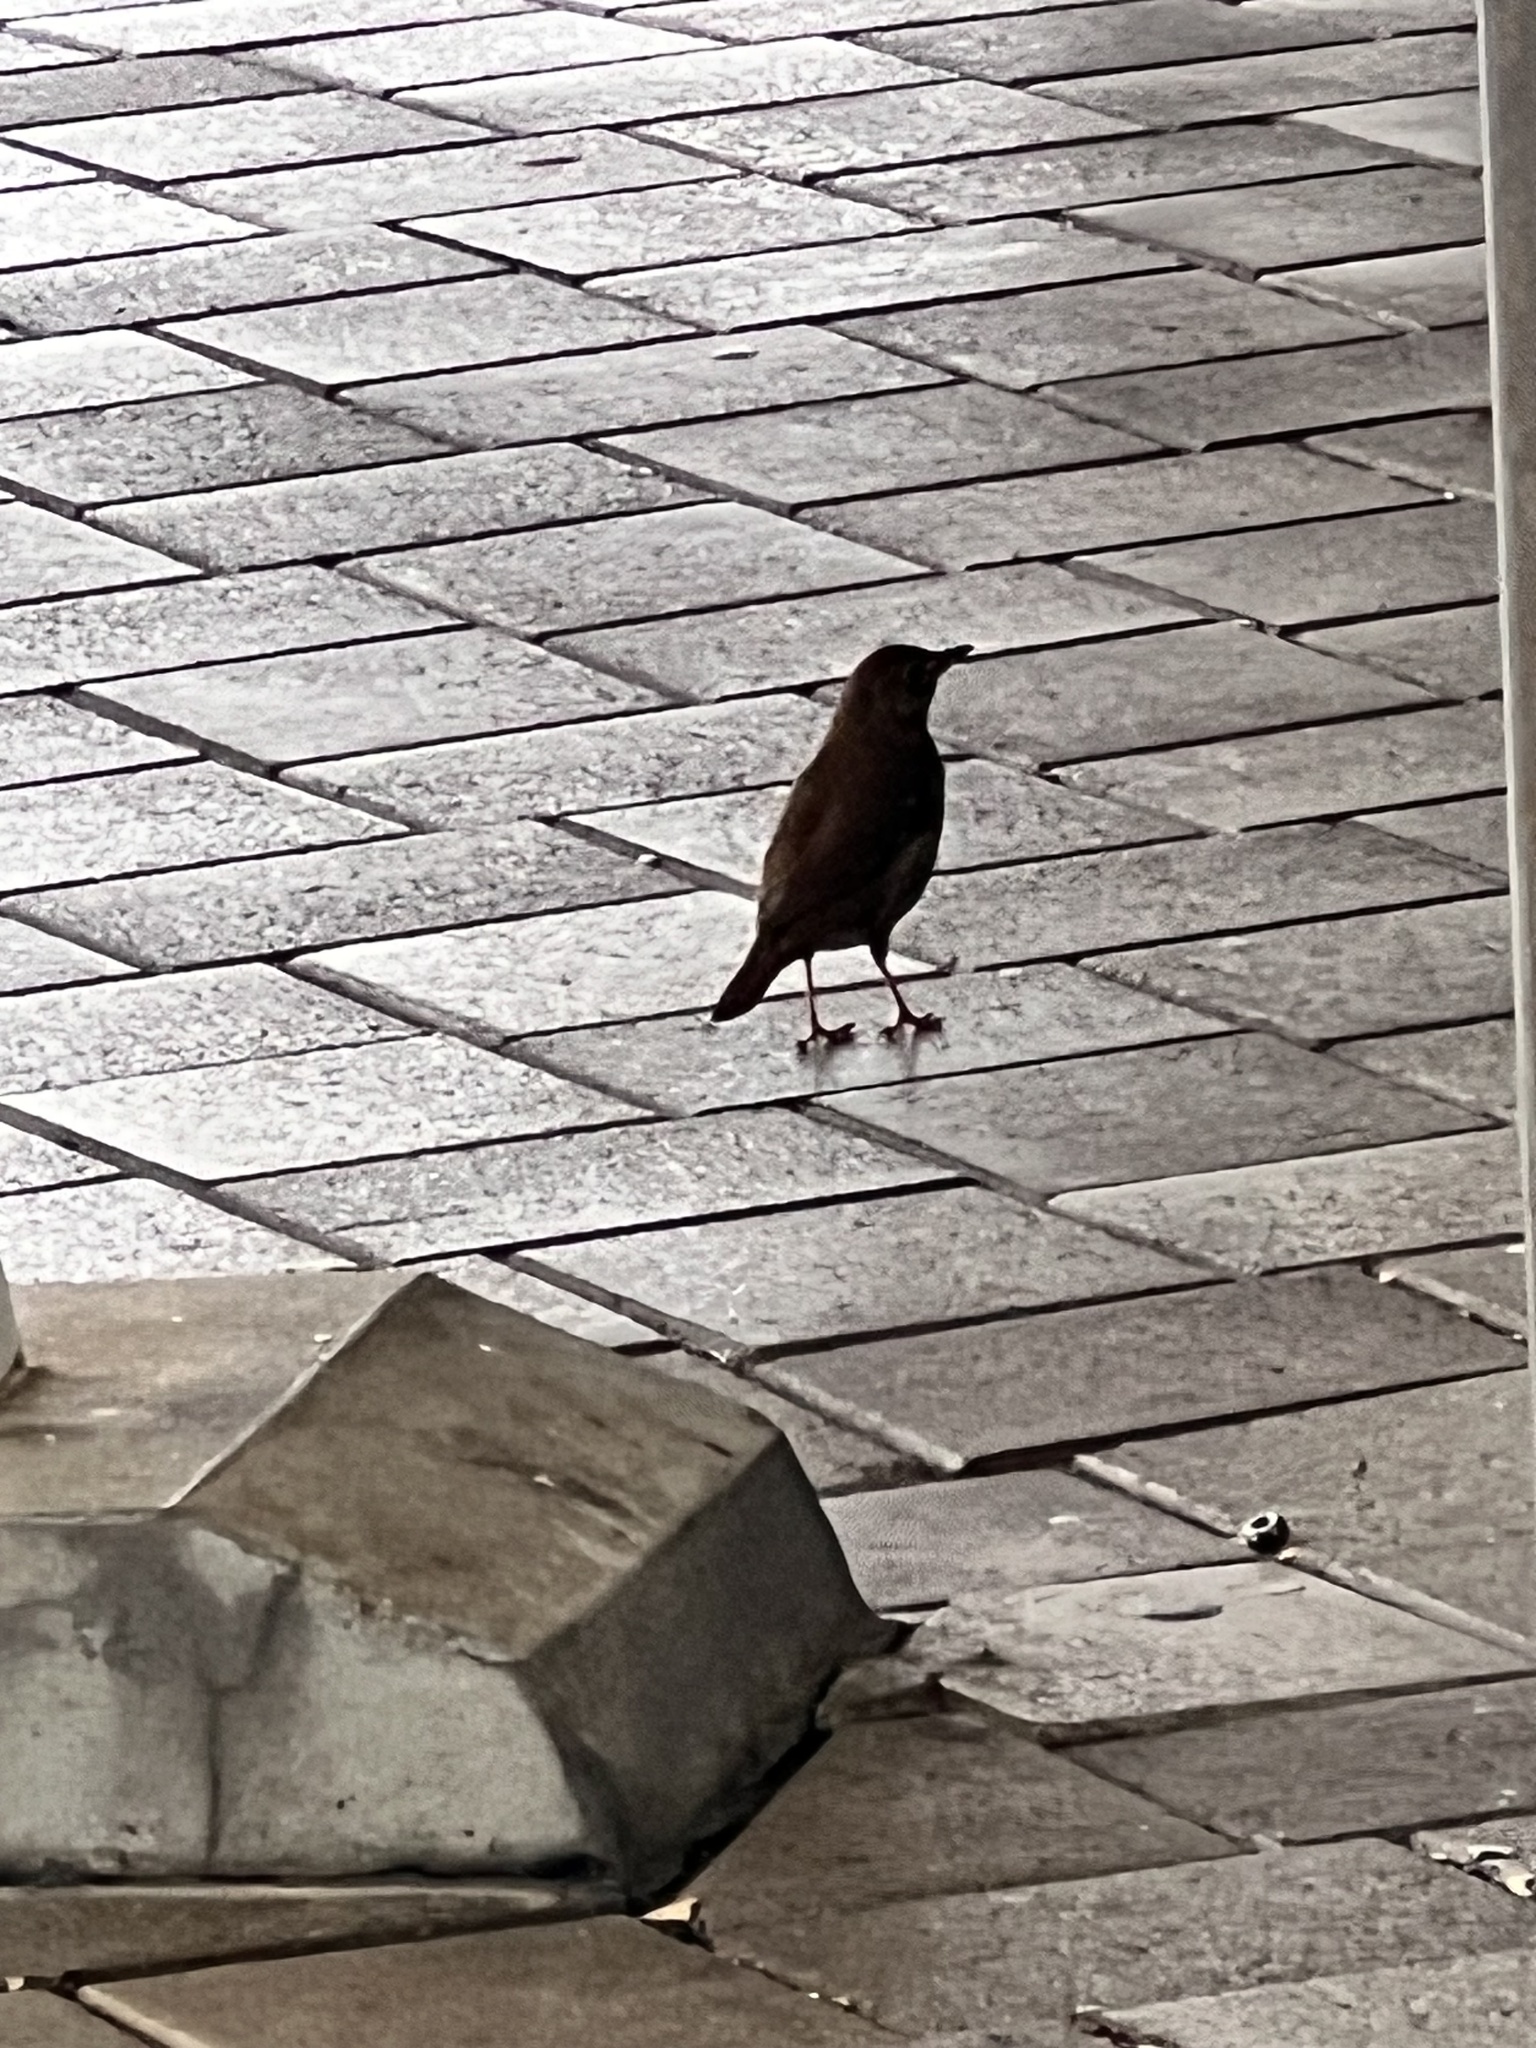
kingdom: Animalia
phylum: Chordata
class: Aves
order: Passeriformes
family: Turdidae
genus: Turdus
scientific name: Turdus merula
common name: Common blackbird
